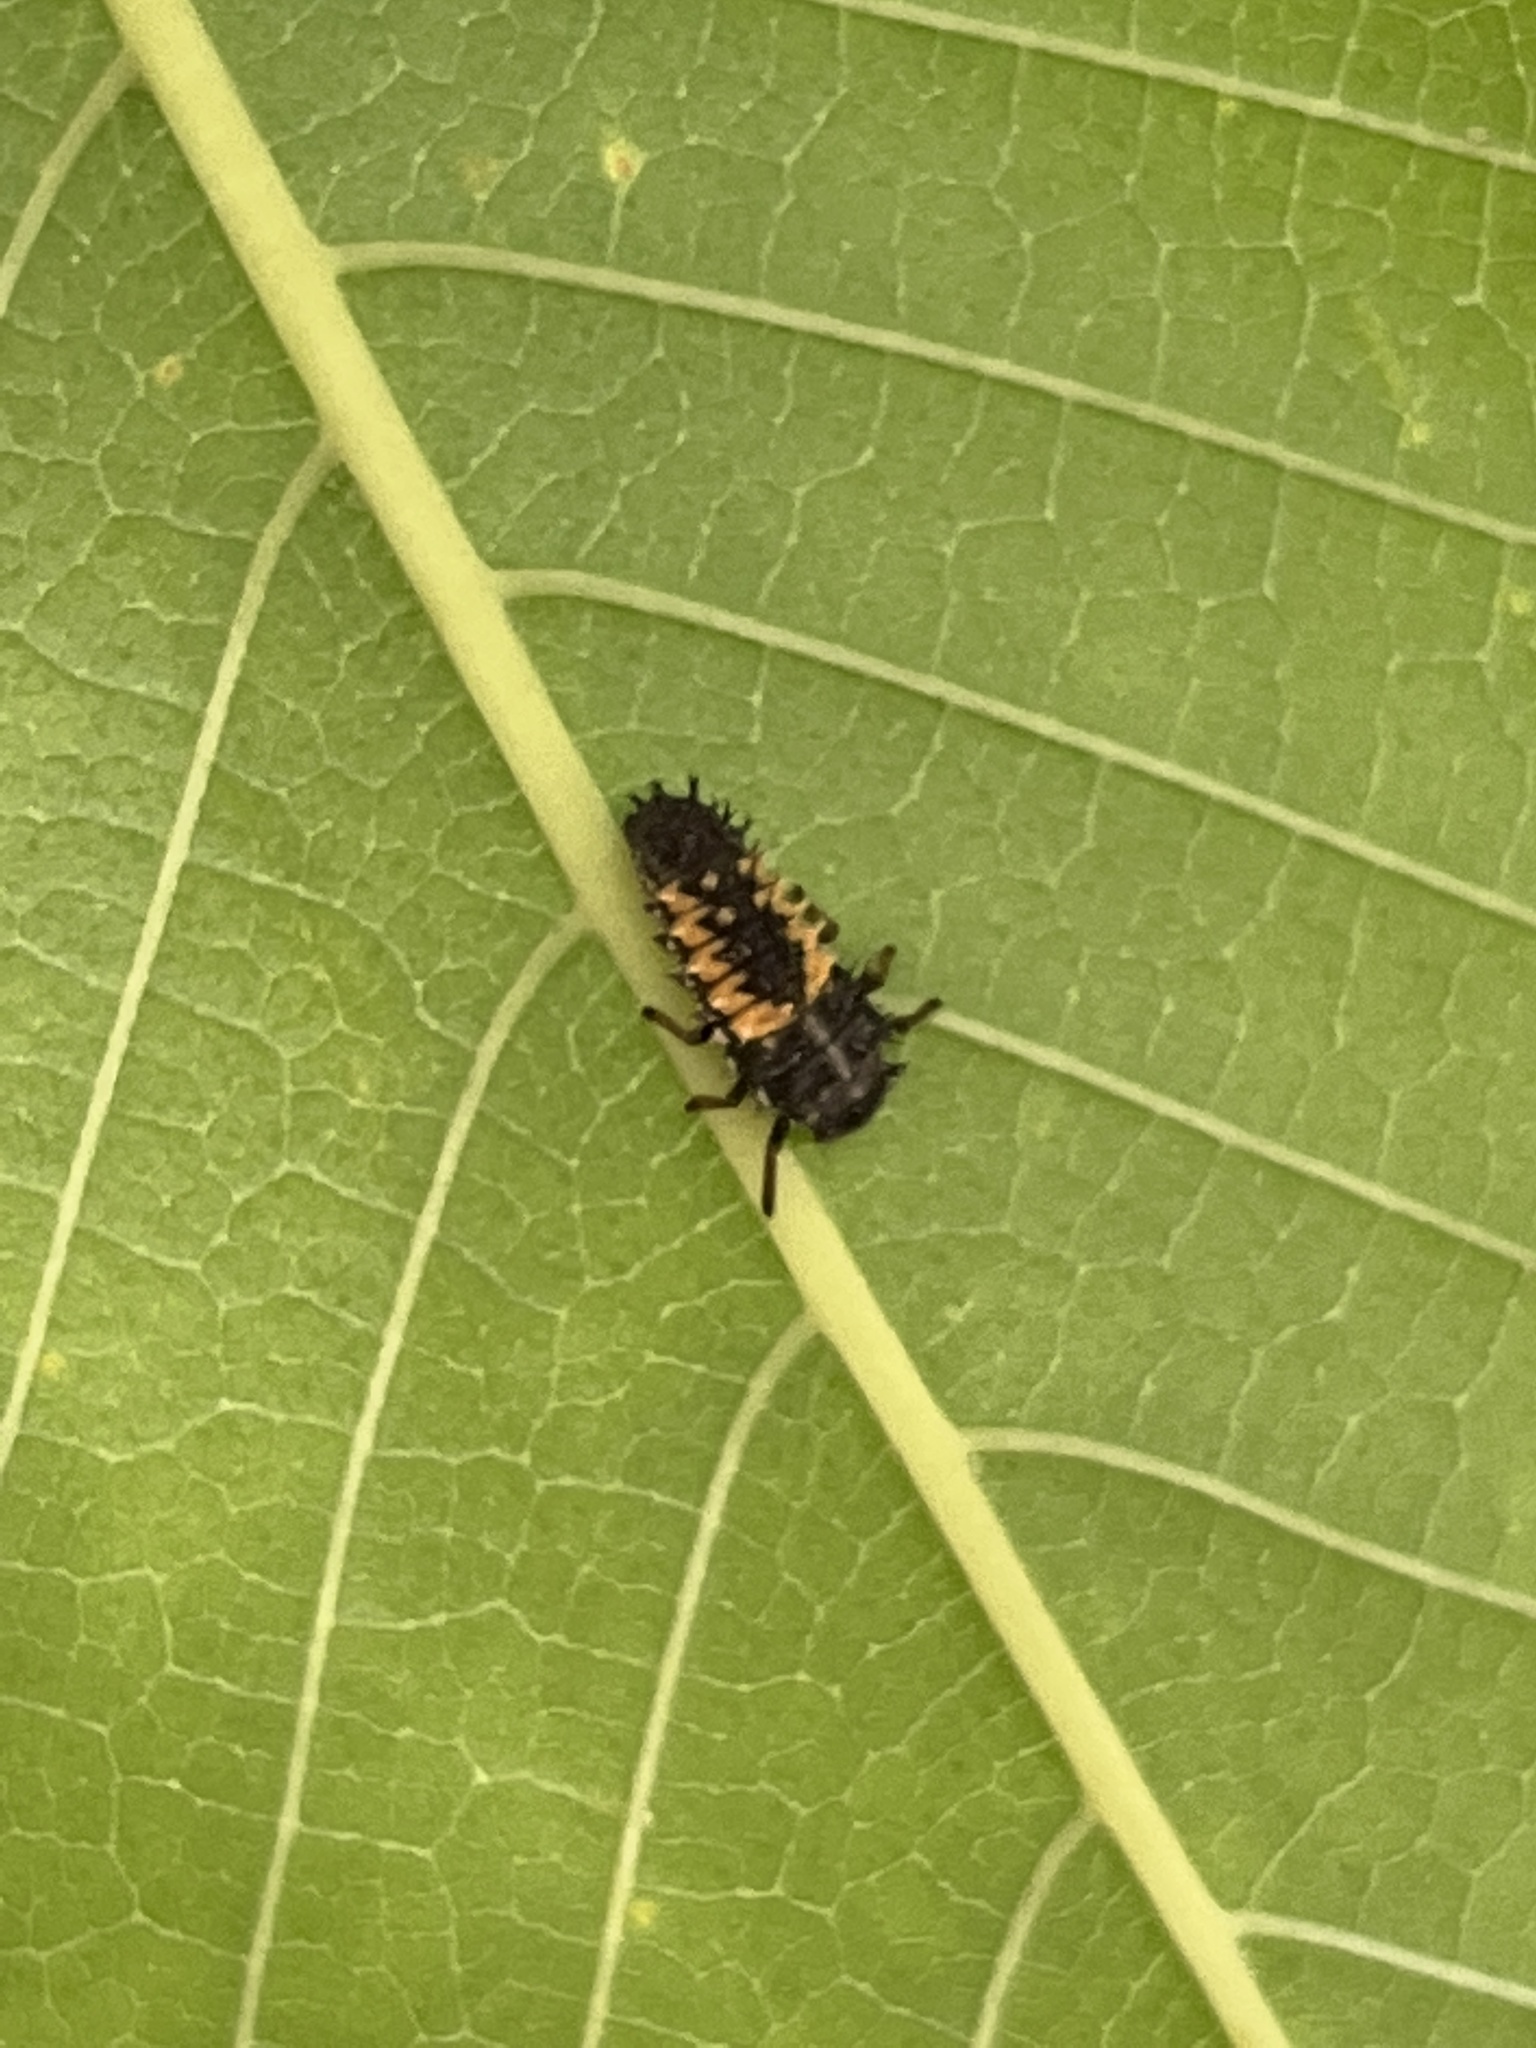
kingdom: Animalia
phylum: Arthropoda
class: Insecta
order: Coleoptera
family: Coccinellidae
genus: Harmonia
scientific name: Harmonia axyridis
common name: Harlequin ladybird
